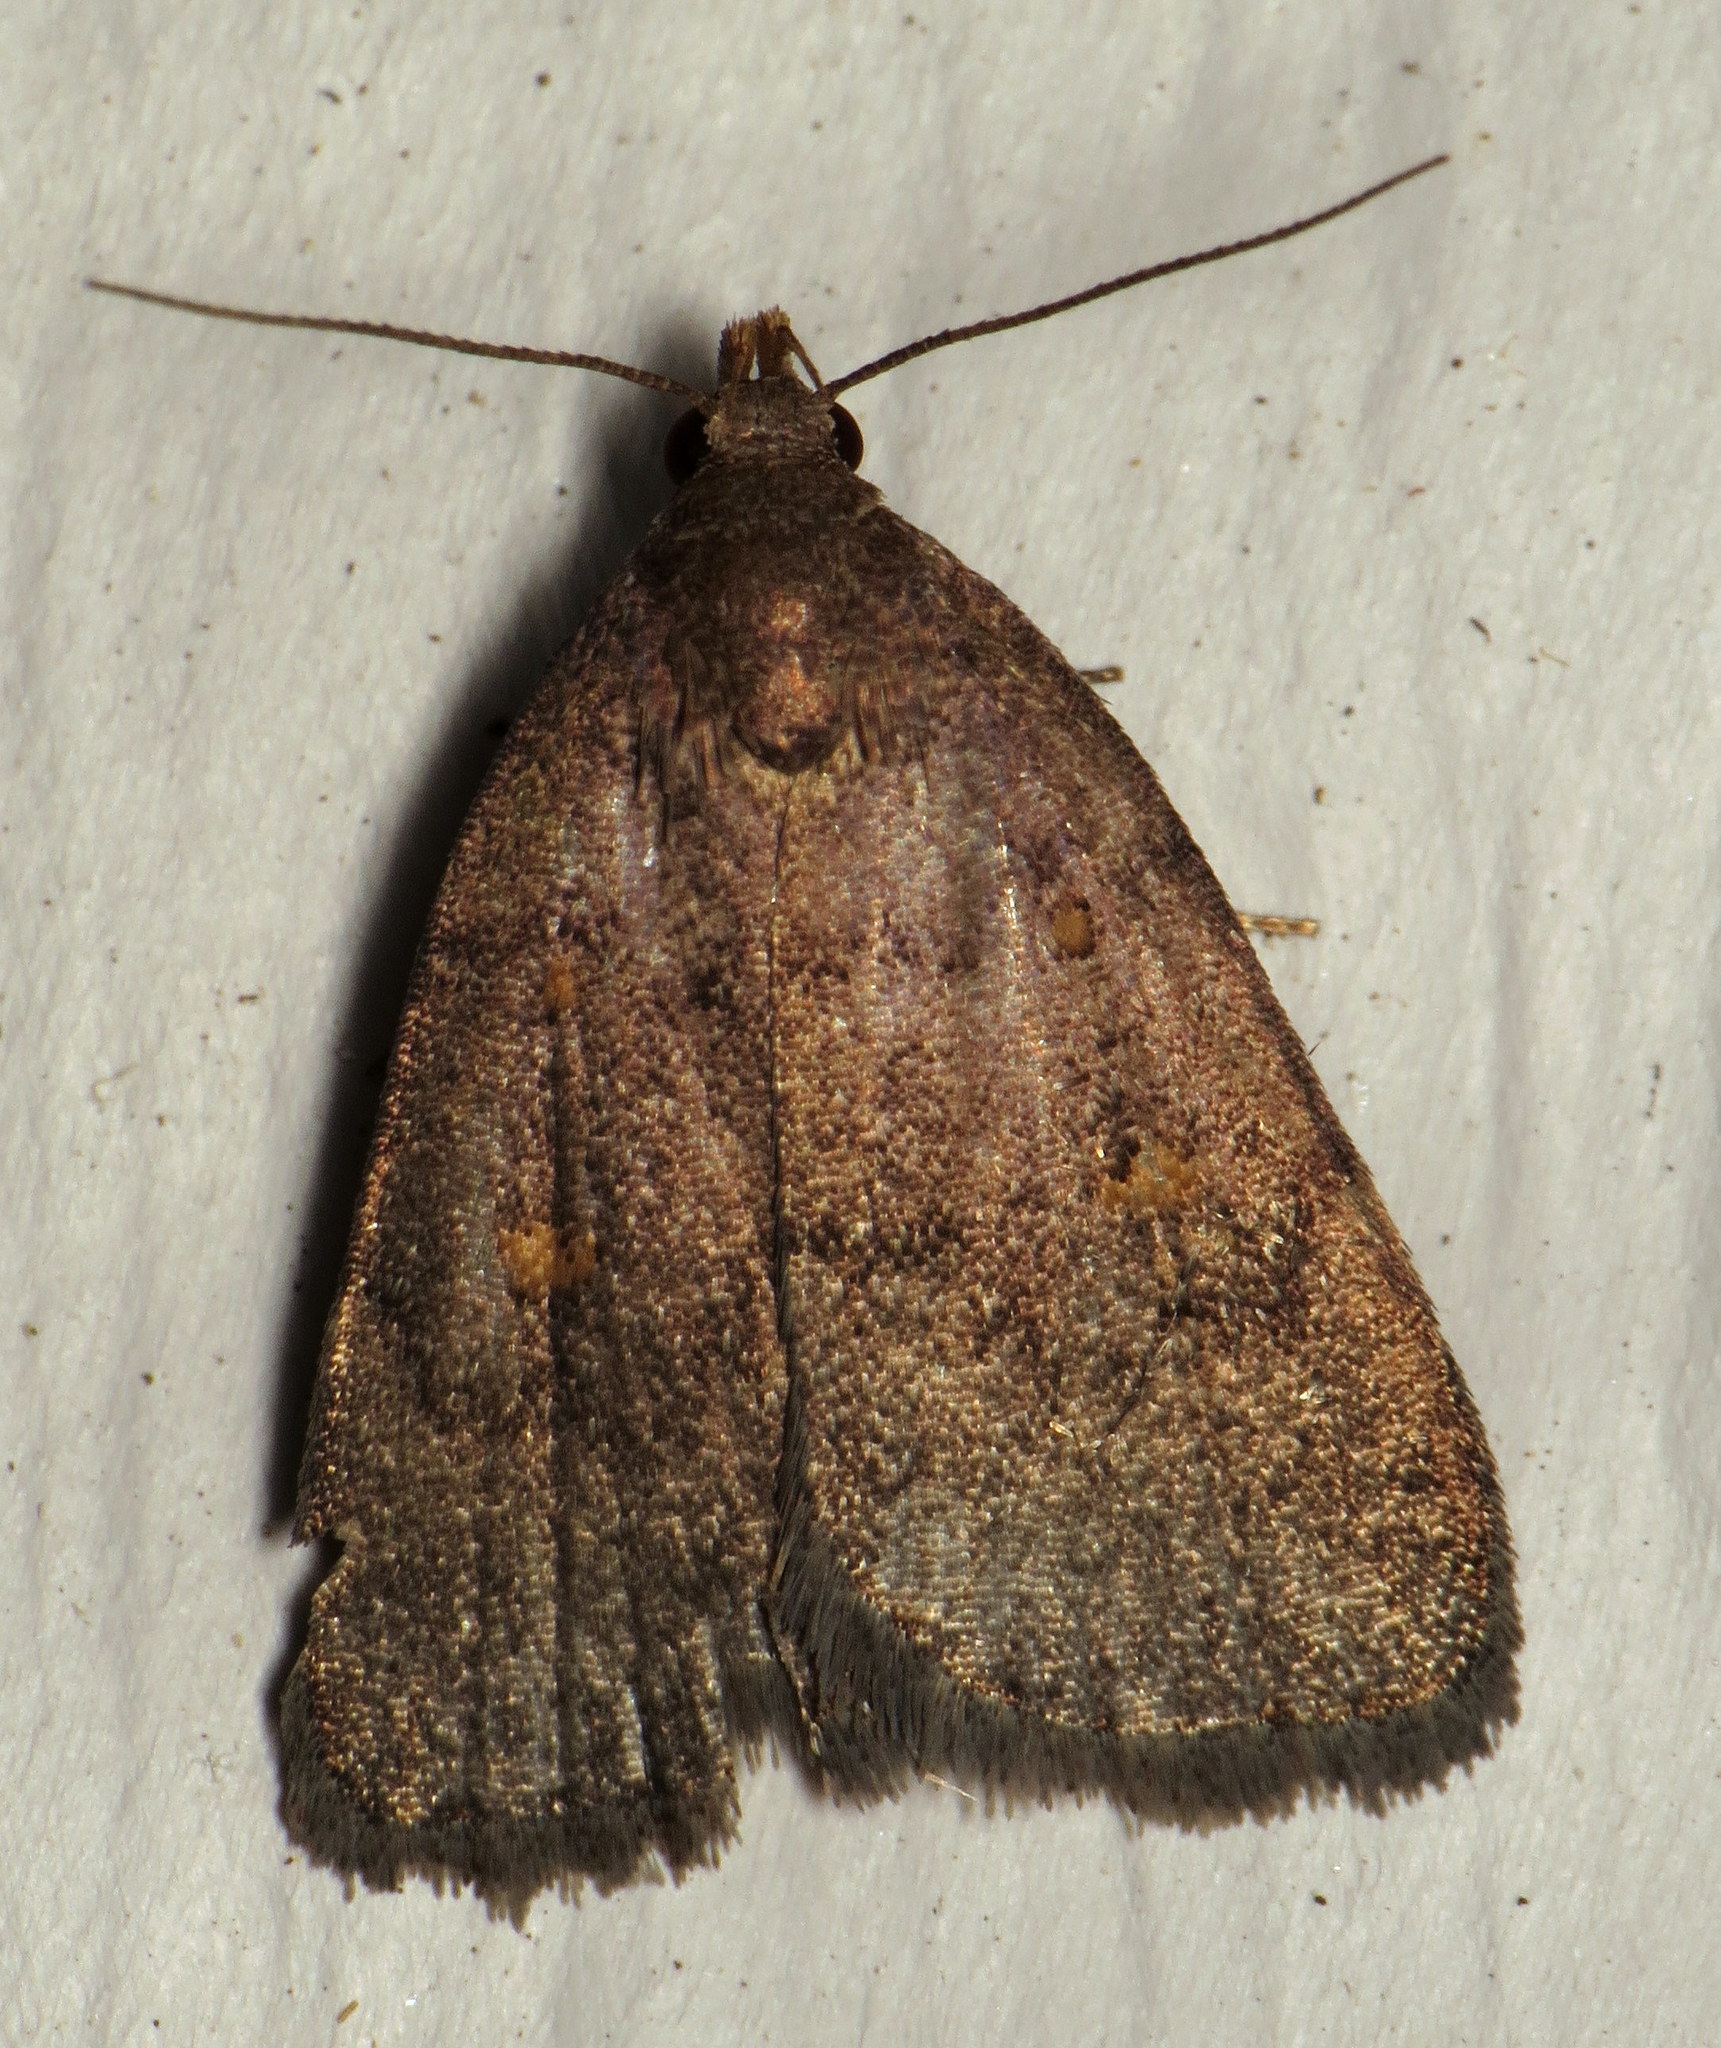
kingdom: Animalia
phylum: Arthropoda
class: Insecta
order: Lepidoptera
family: Erebidae
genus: Idia
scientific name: Idia diminuendis
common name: Orange-spotted idia moth
